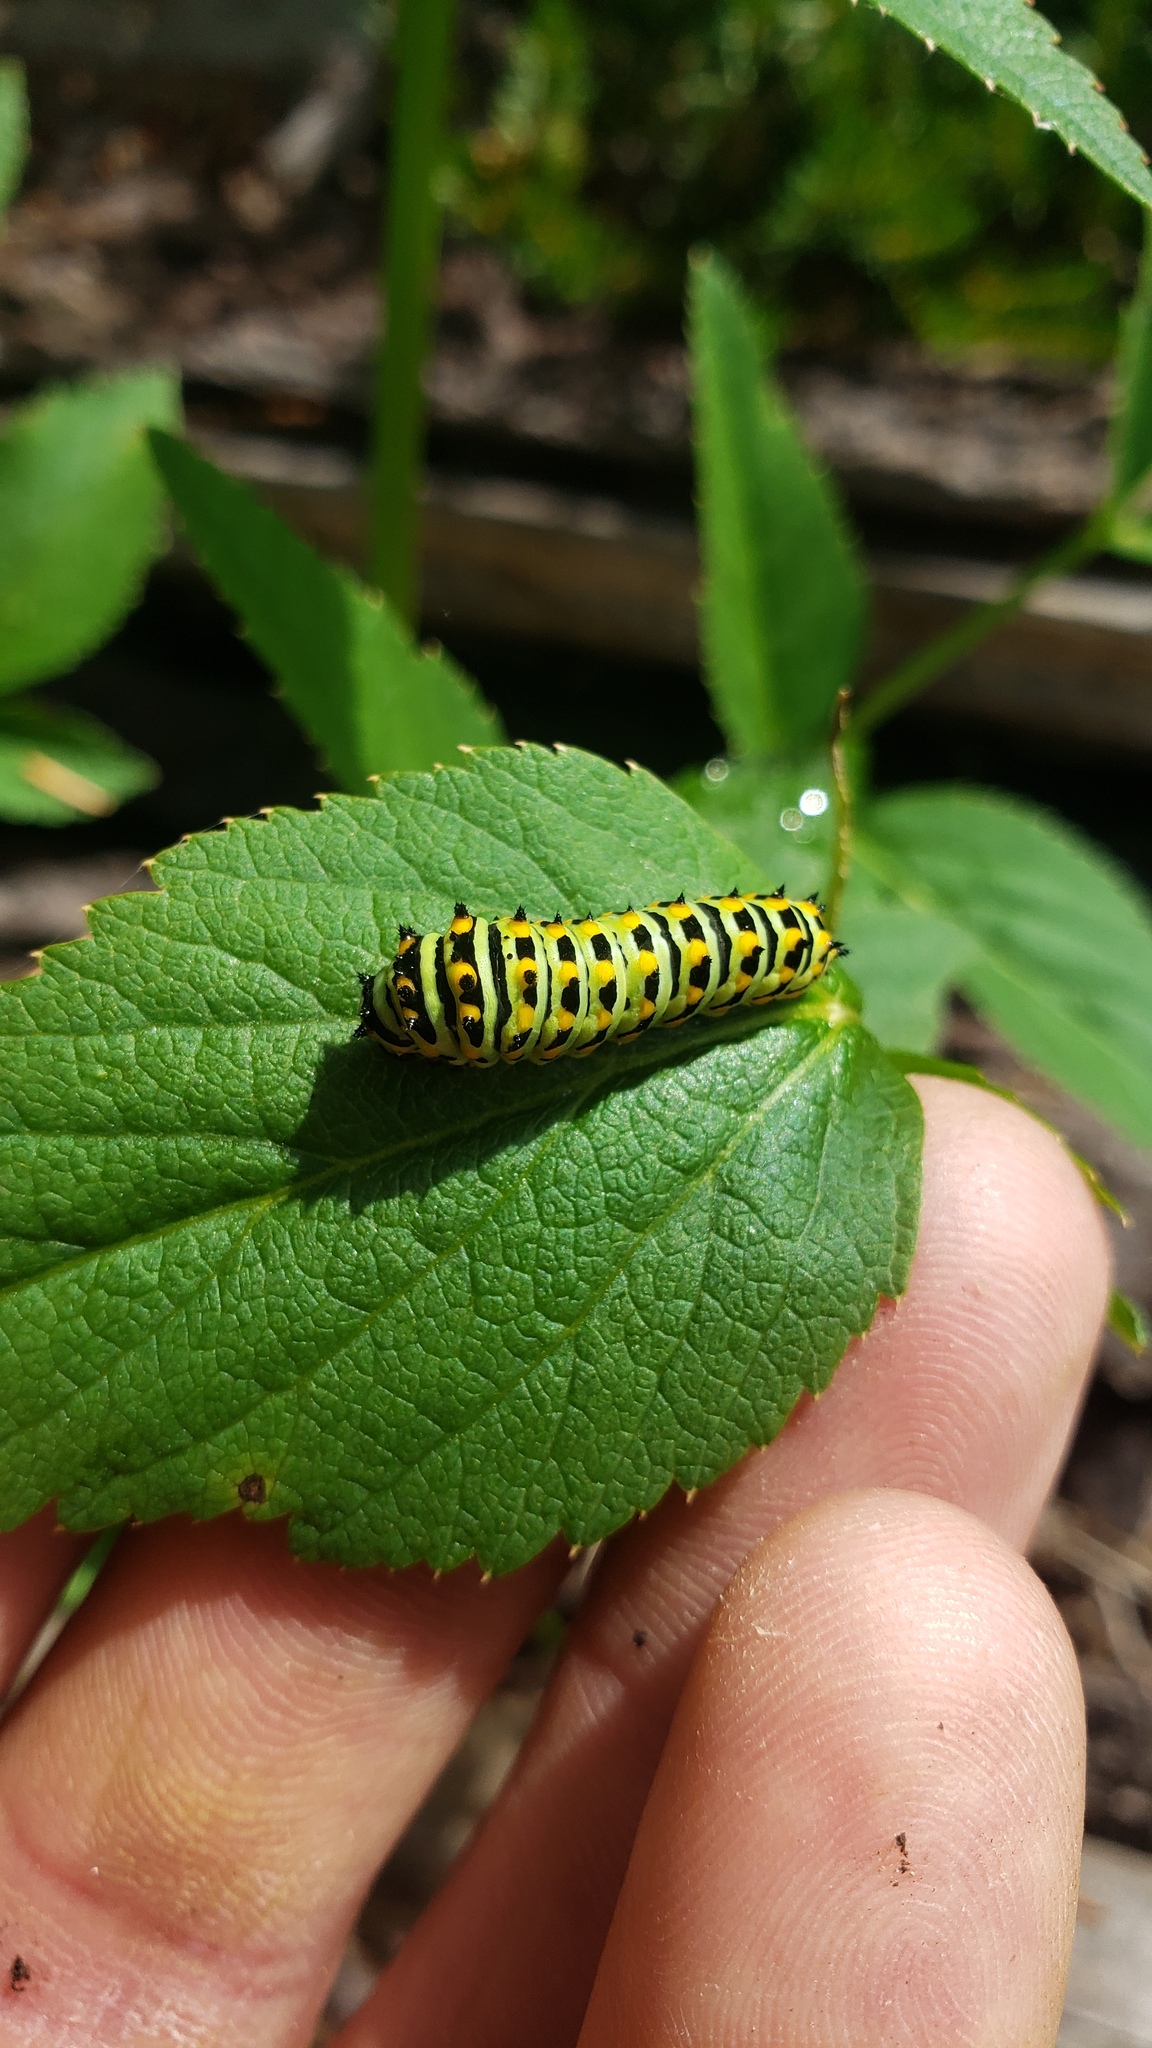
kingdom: Animalia
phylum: Arthropoda
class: Insecta
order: Lepidoptera
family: Papilionidae
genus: Papilio
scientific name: Papilio zelicaon
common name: Anise swallowtail
